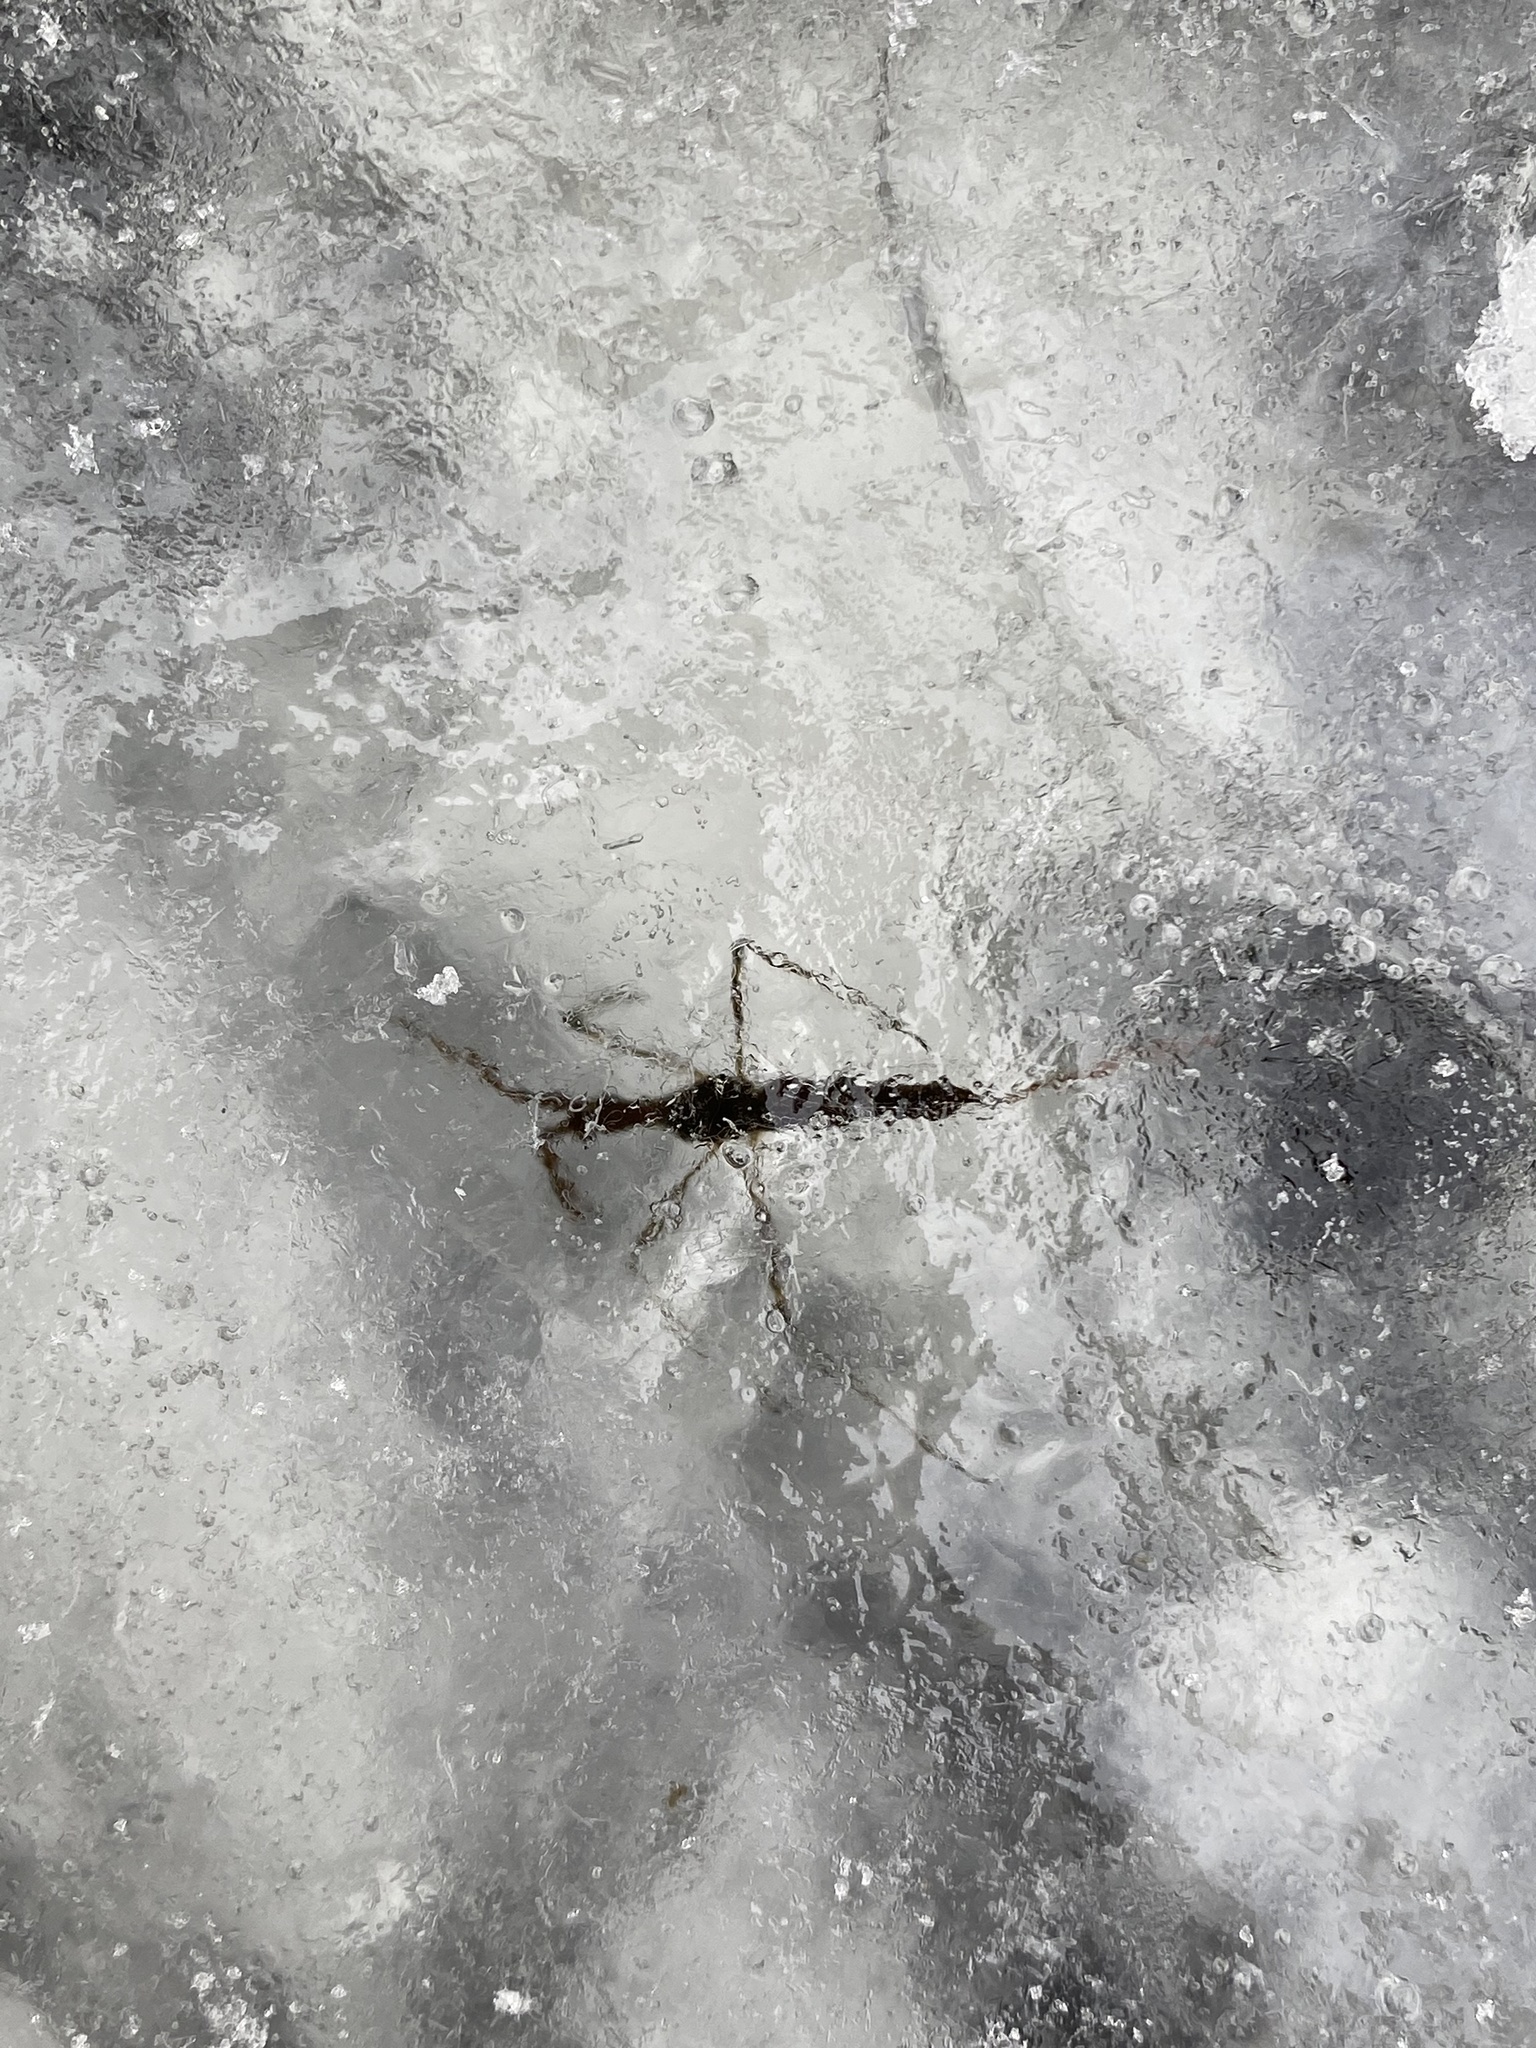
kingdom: Animalia
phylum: Arthropoda
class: Insecta
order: Hemiptera
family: Nepidae
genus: Ranatra
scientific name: Ranatra
